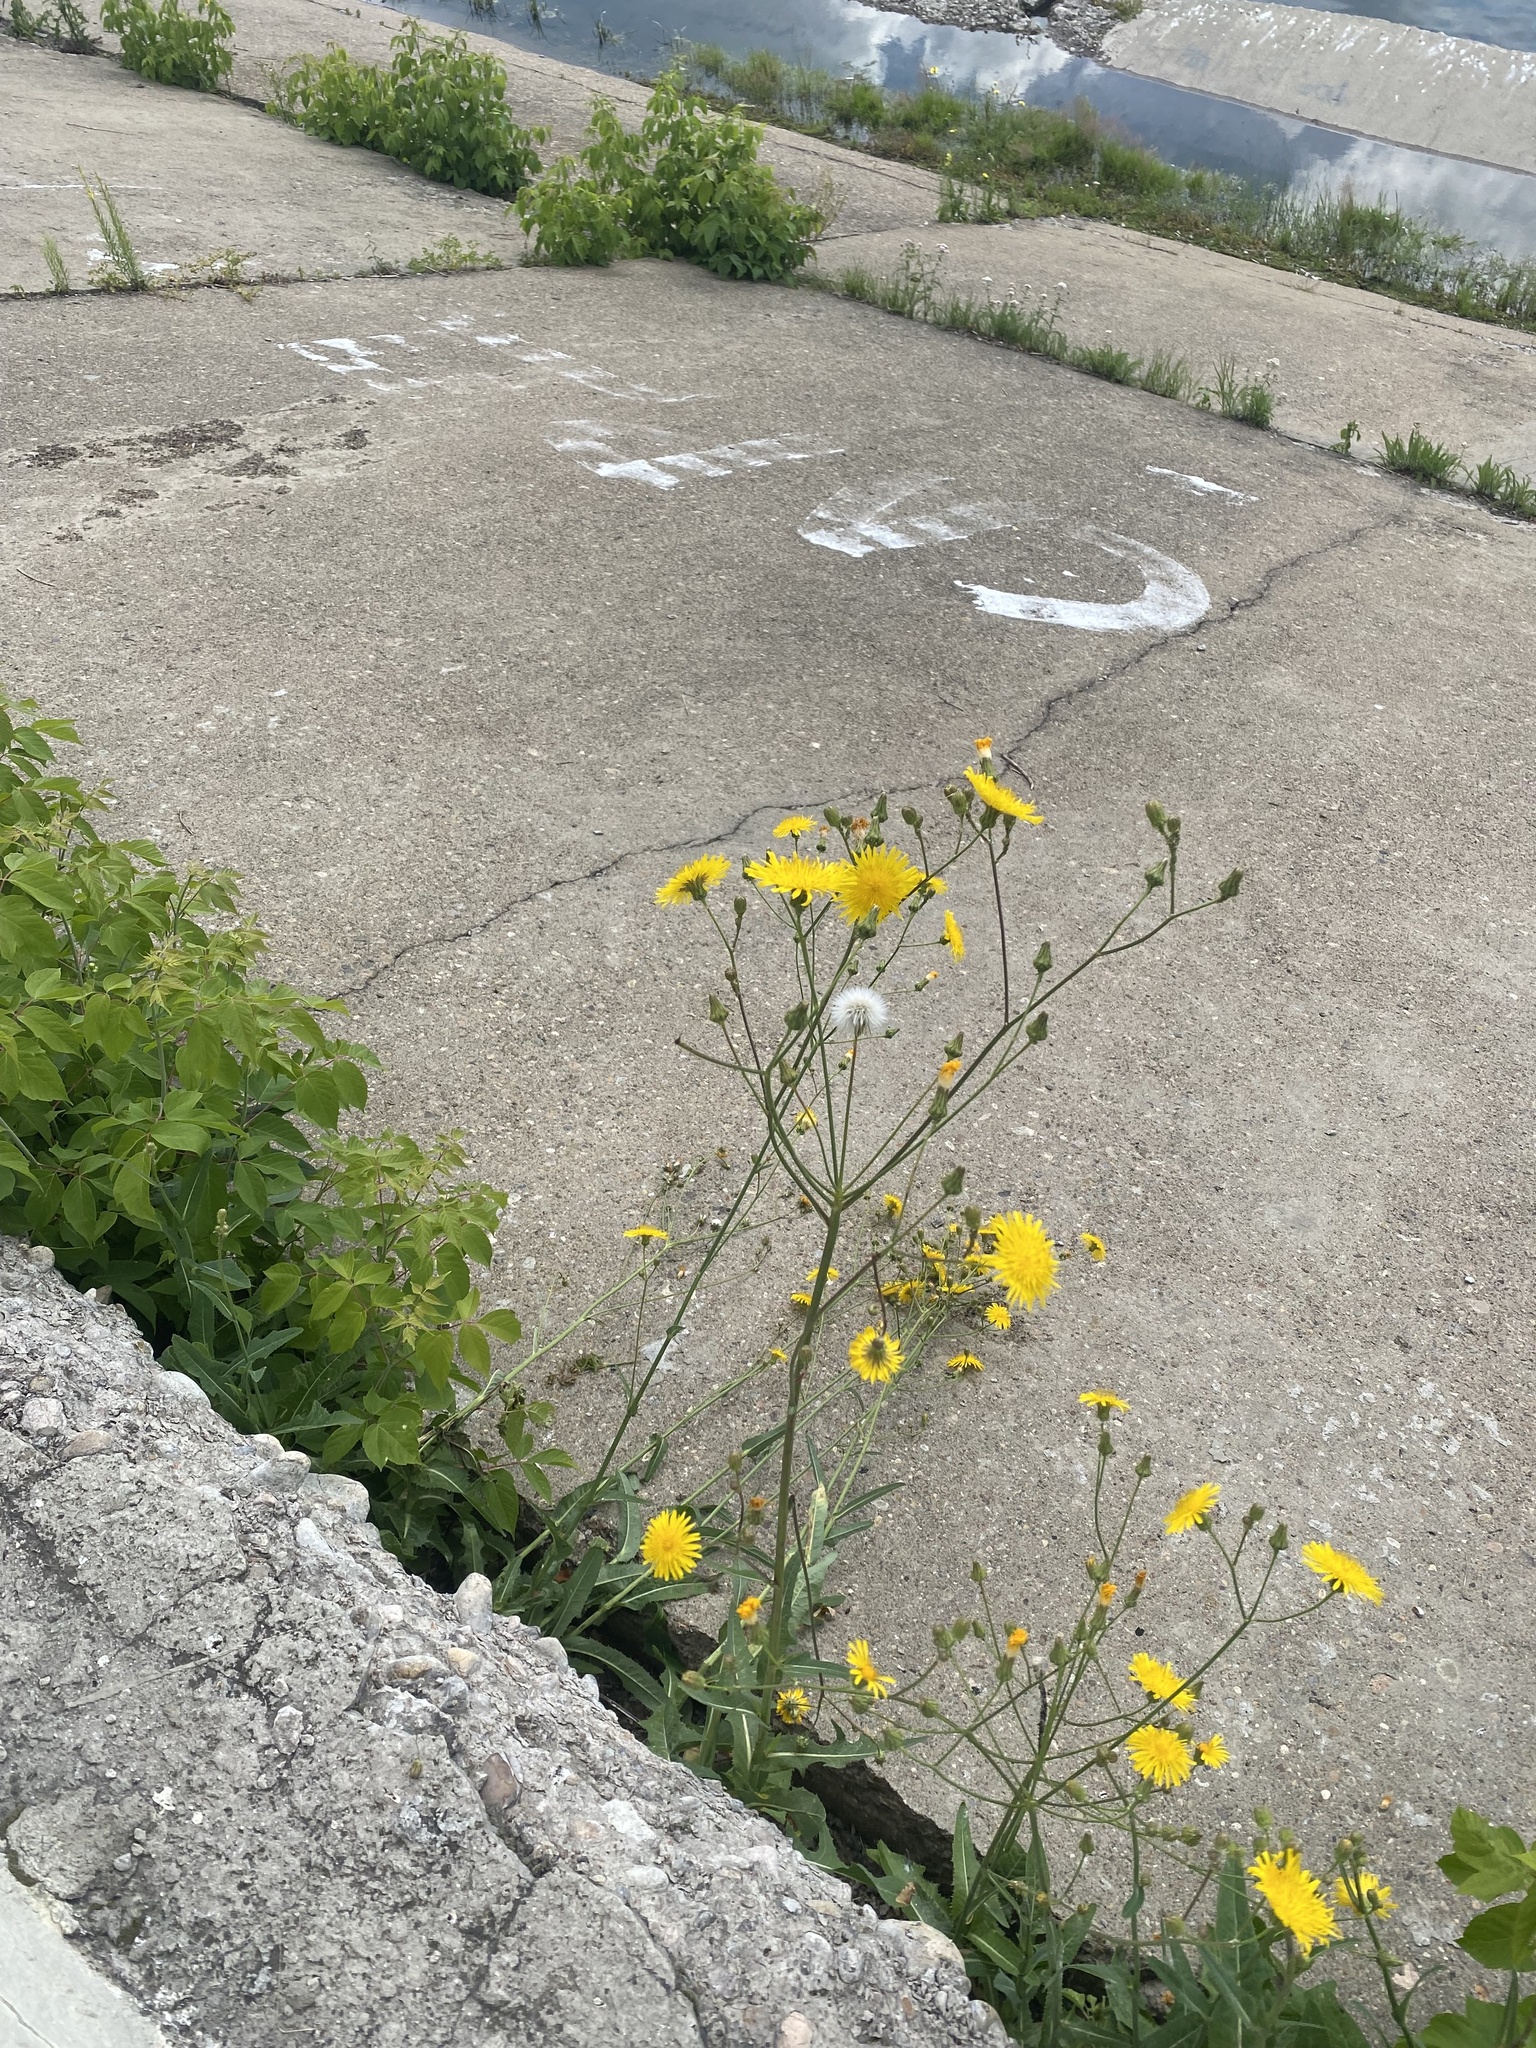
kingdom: Plantae
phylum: Tracheophyta
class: Magnoliopsida
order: Asterales
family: Asteraceae
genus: Sonchus
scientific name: Sonchus arvensis
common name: Perennial sow-thistle
